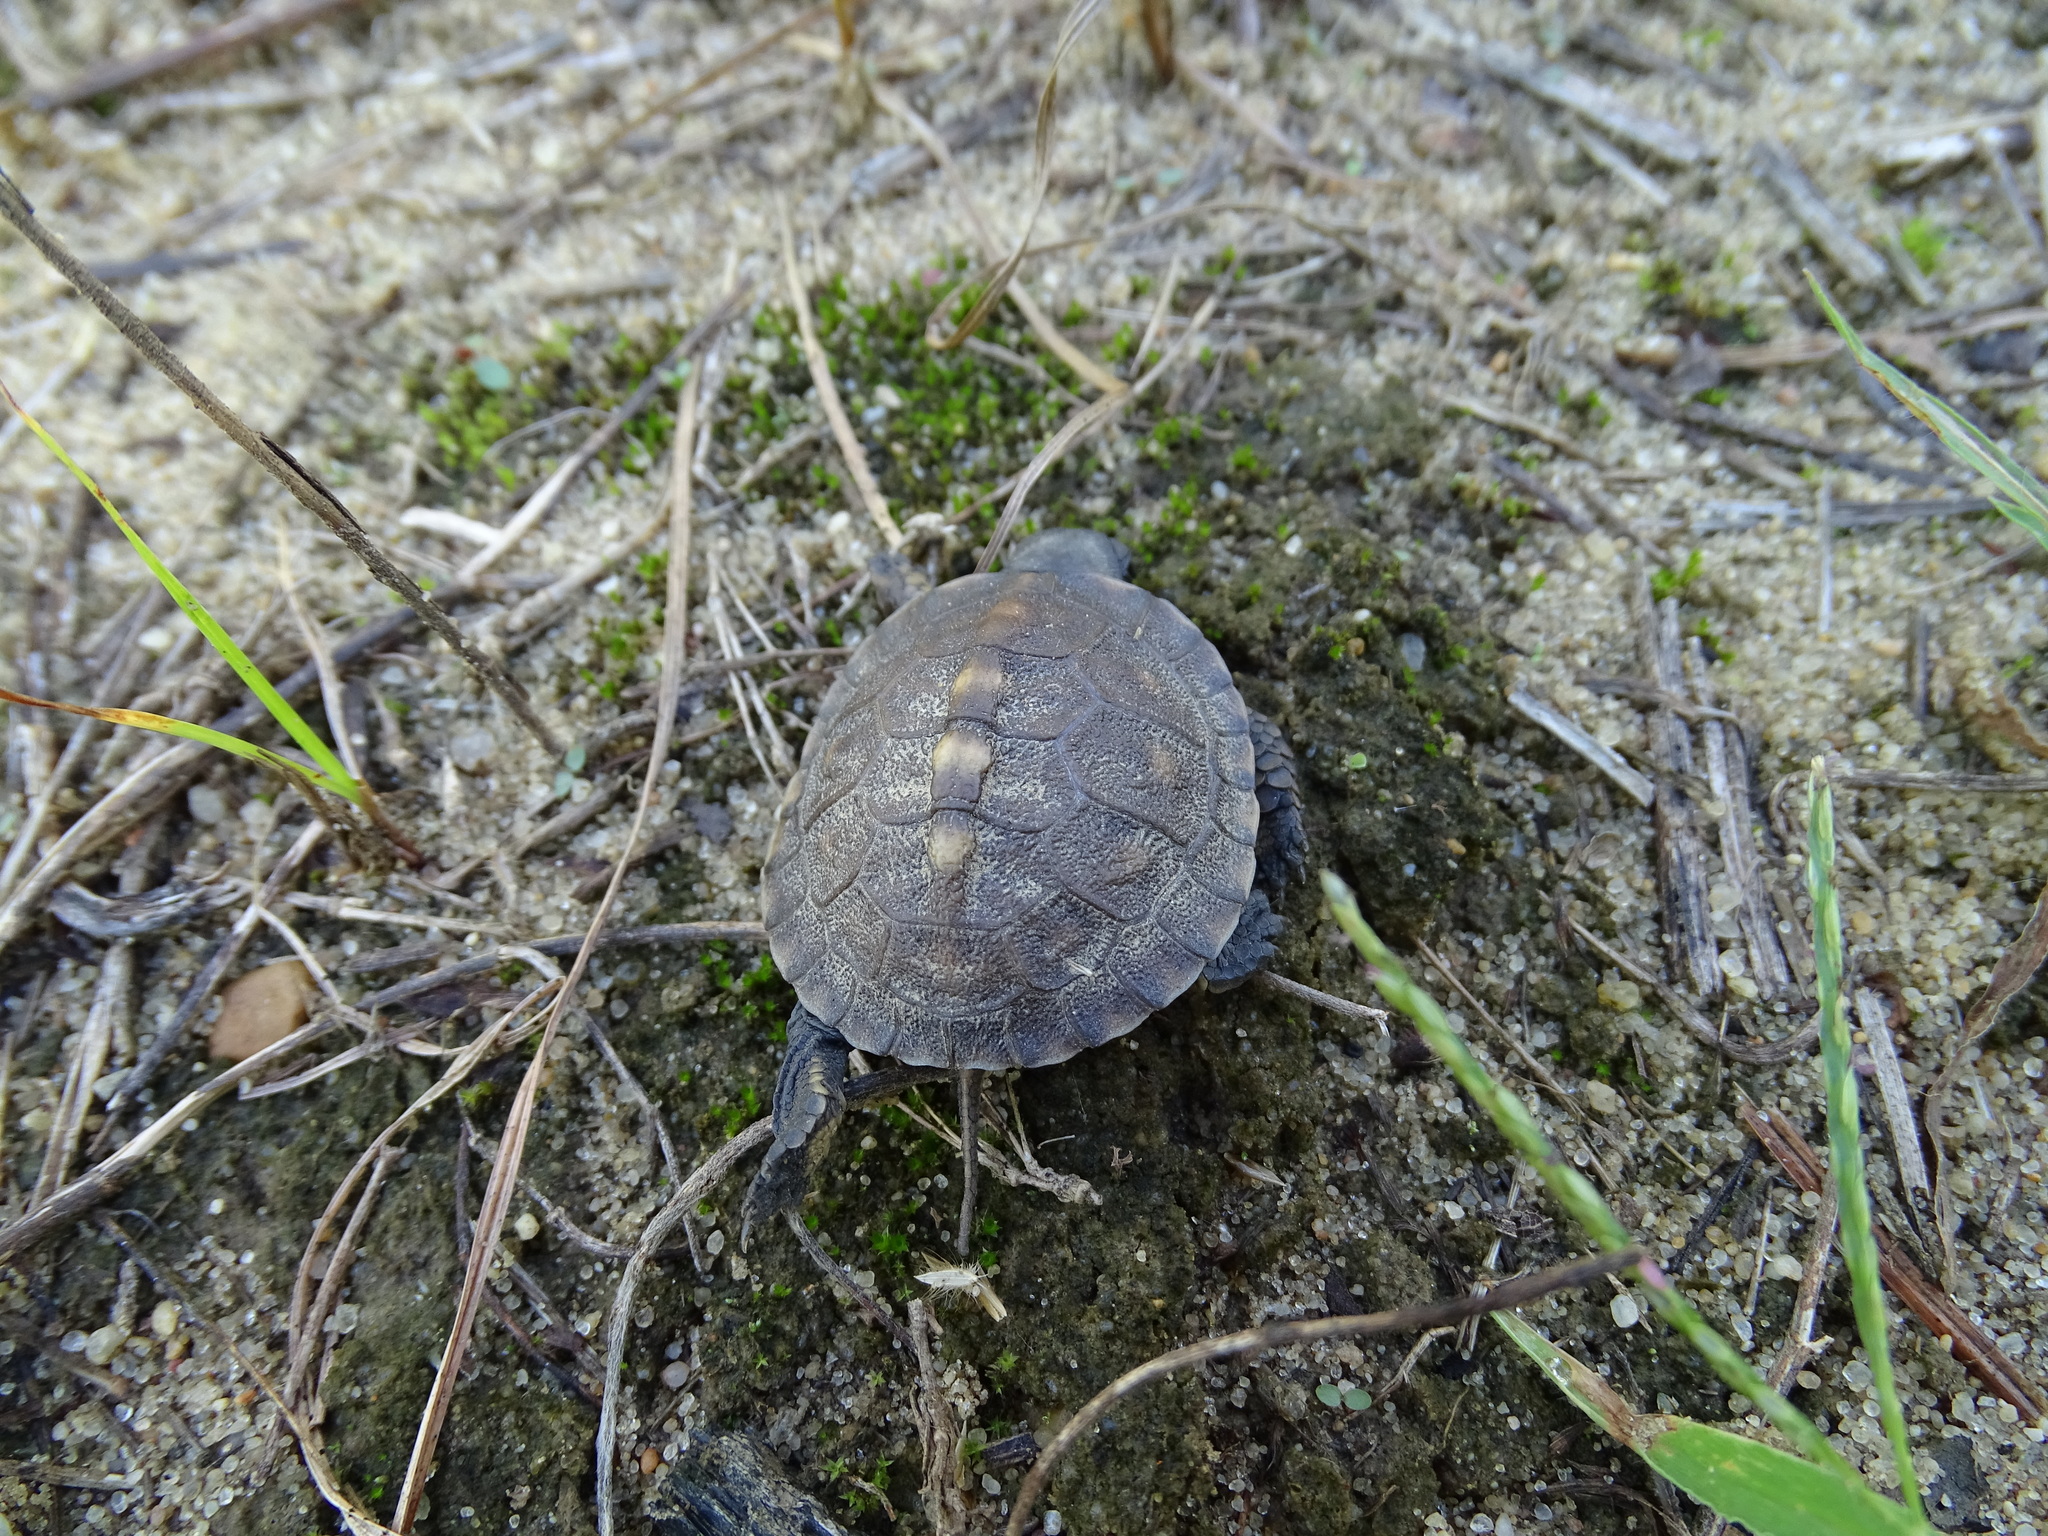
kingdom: Animalia
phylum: Chordata
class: Testudines
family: Emydidae
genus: Terrapene
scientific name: Terrapene carolina
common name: Common box turtle
